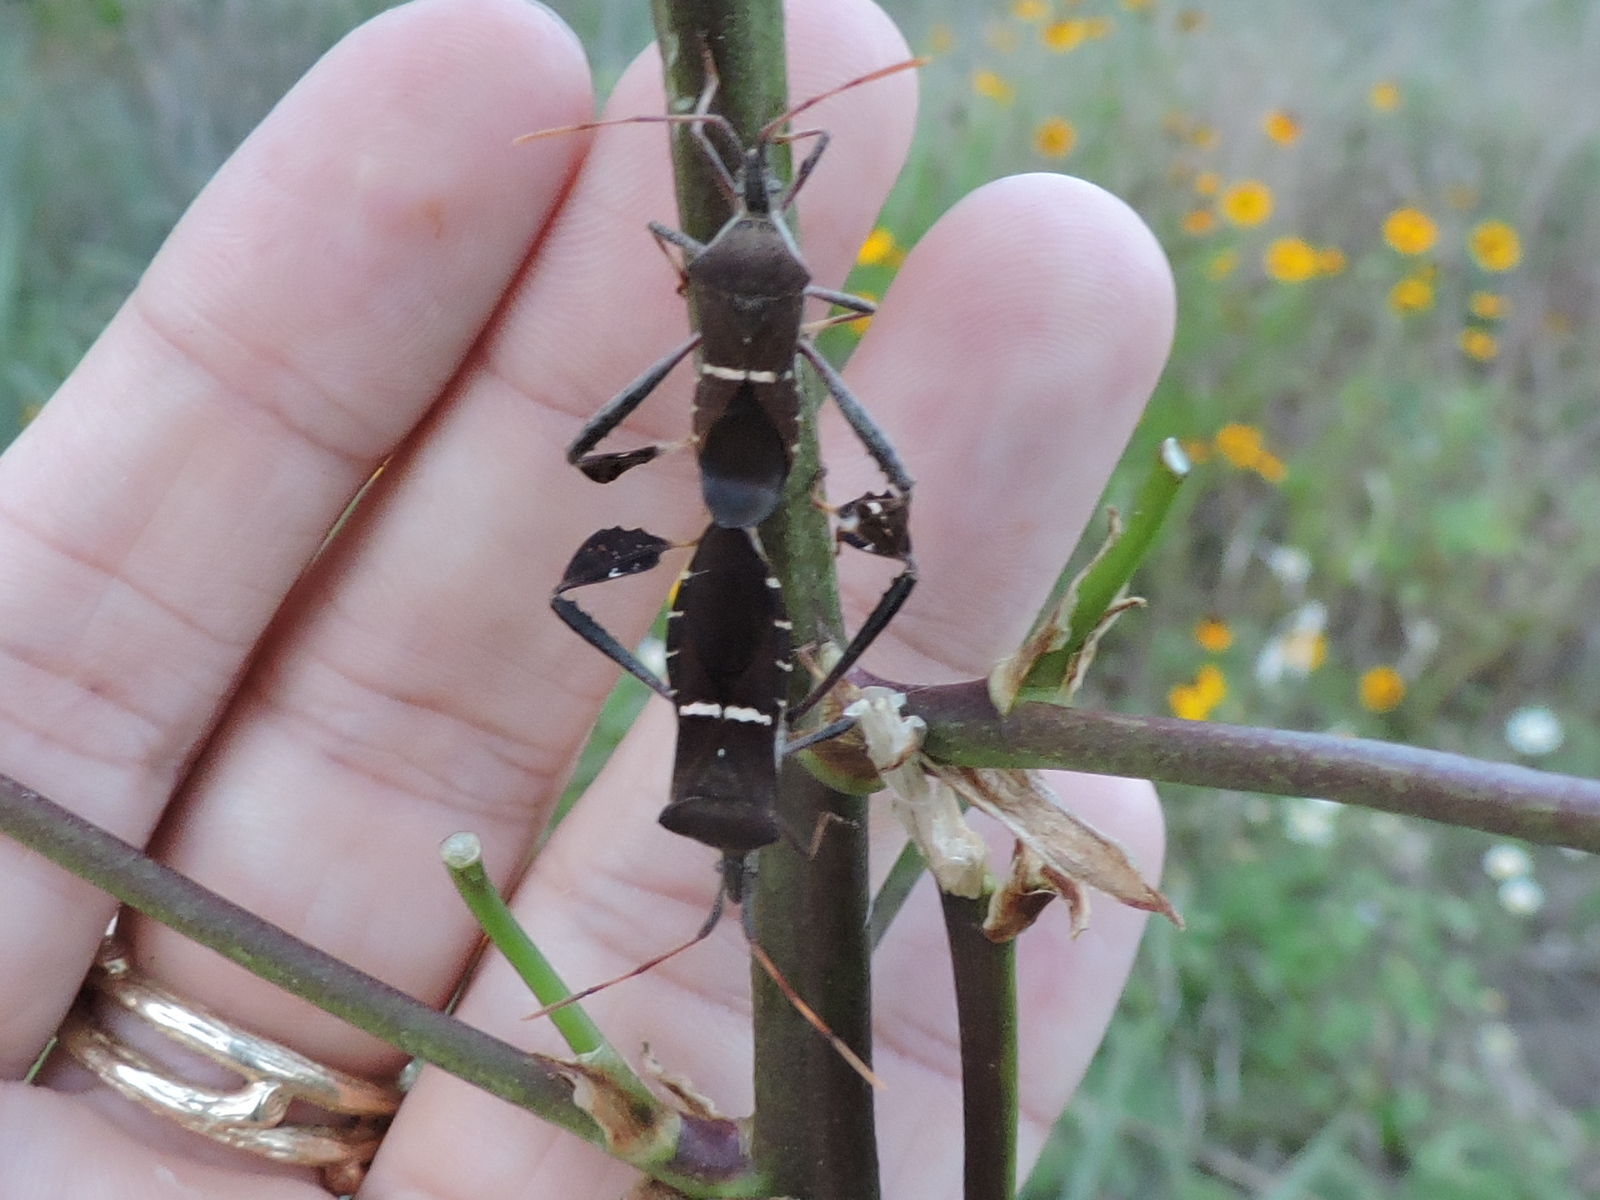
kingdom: Animalia
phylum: Arthropoda
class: Insecta
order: Hemiptera
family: Coreidae
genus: Leptoglossus
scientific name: Leptoglossus phyllopus
